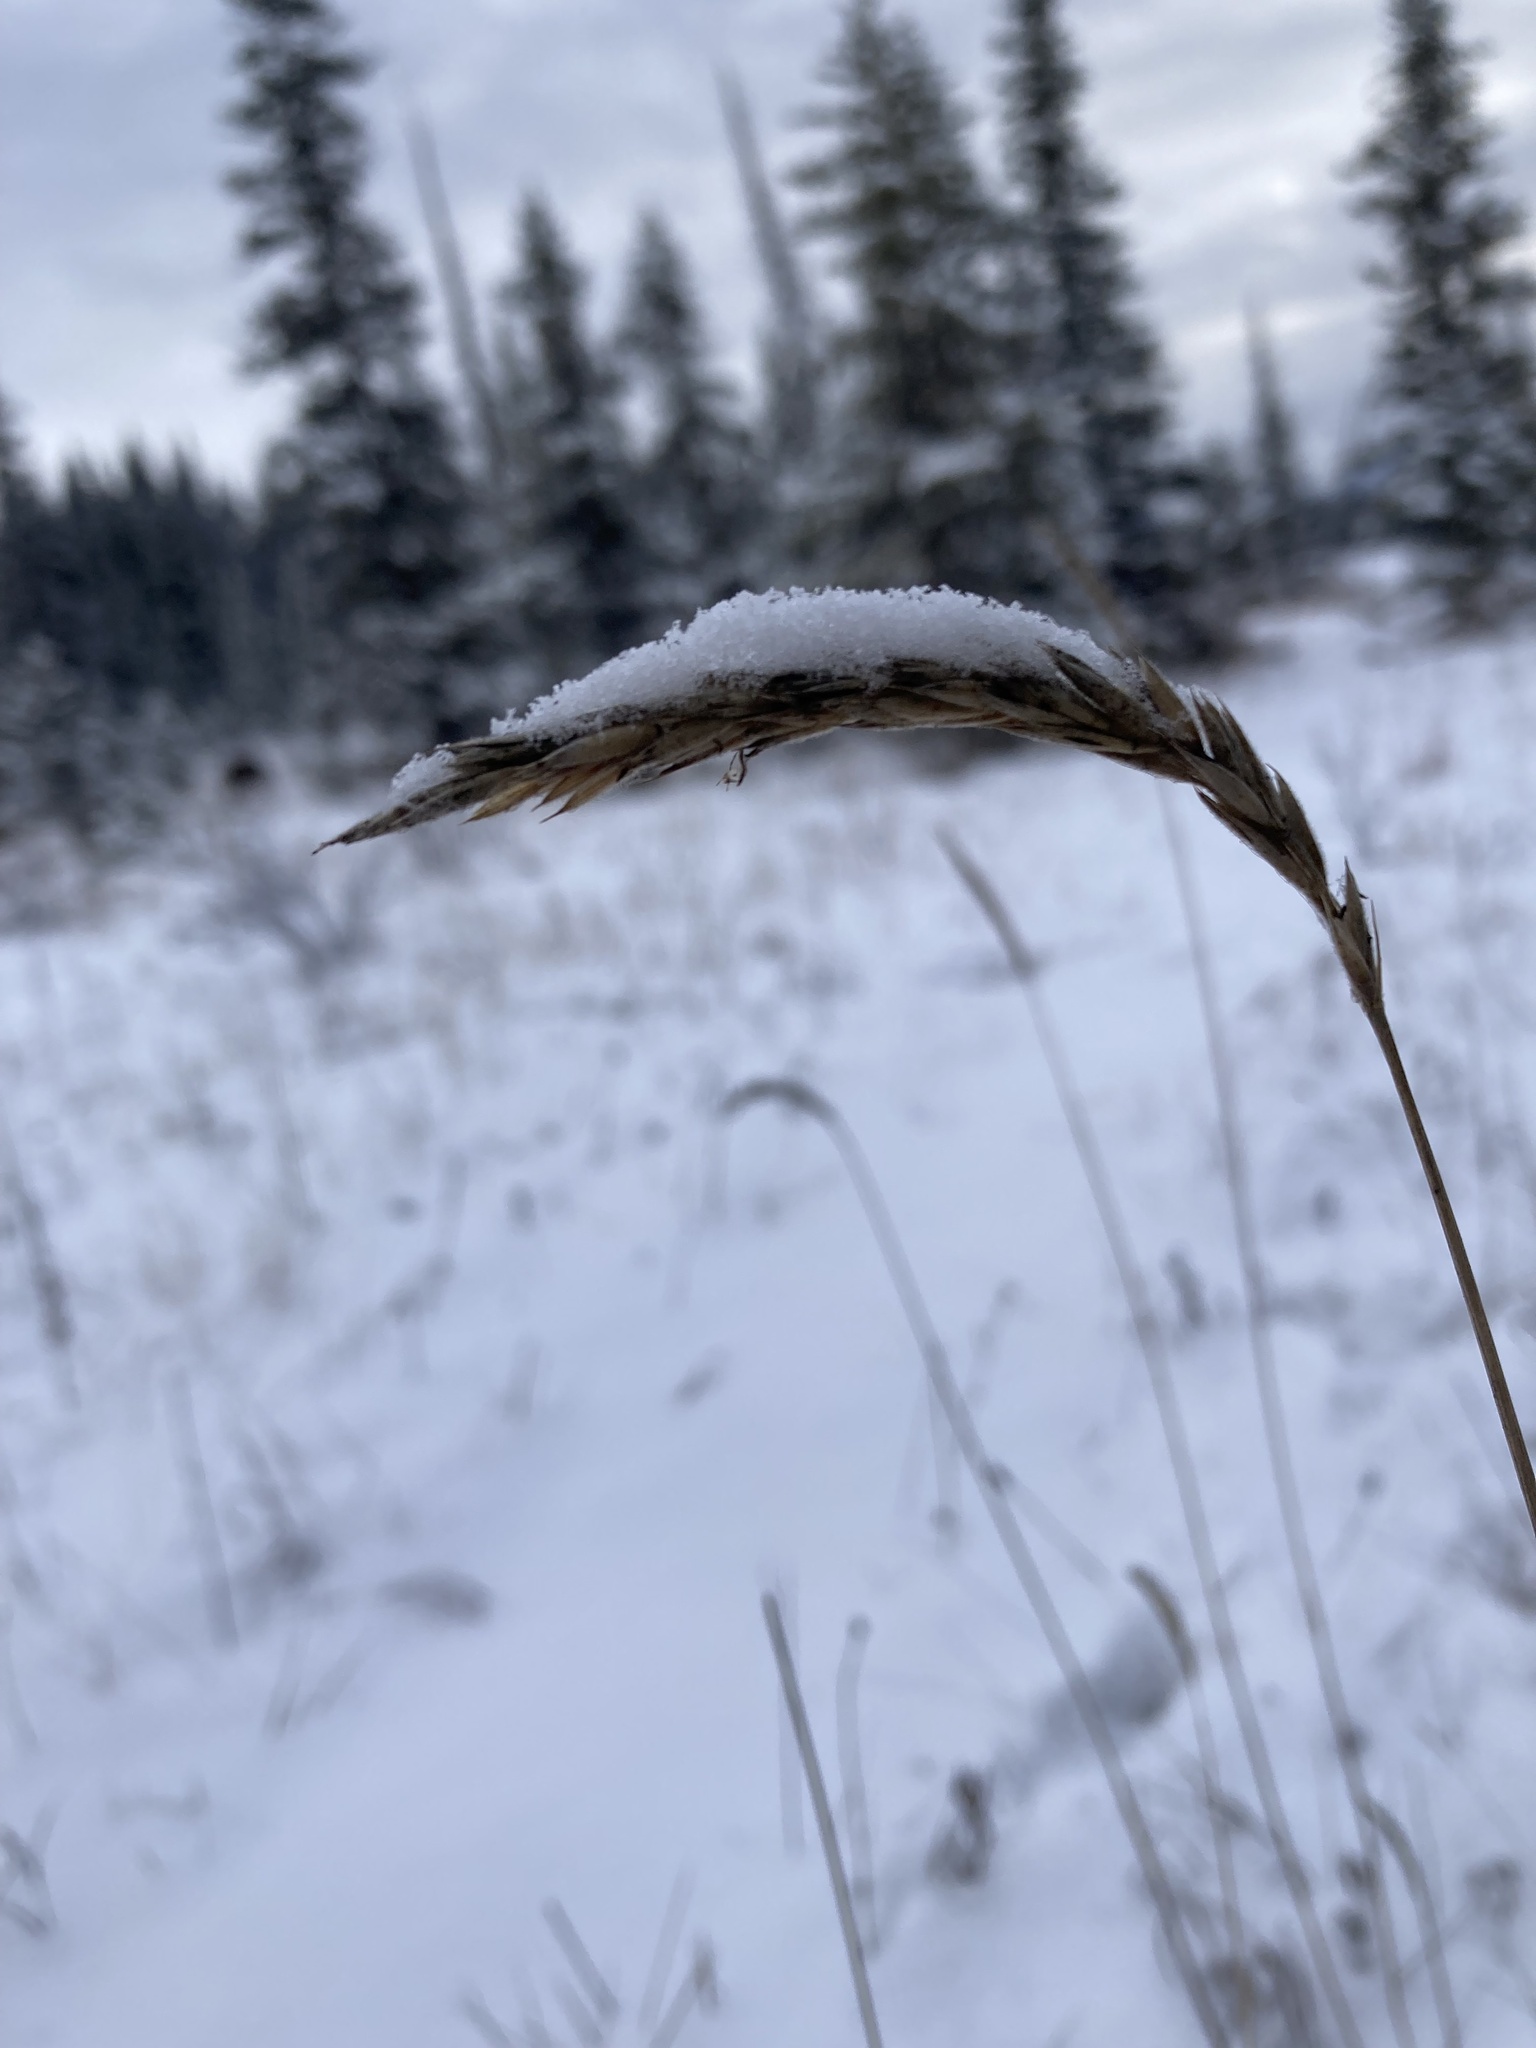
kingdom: Plantae
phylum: Tracheophyta
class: Liliopsida
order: Poales
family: Poaceae
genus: Leymus
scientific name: Leymus innovatus
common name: Boreal wild rye
